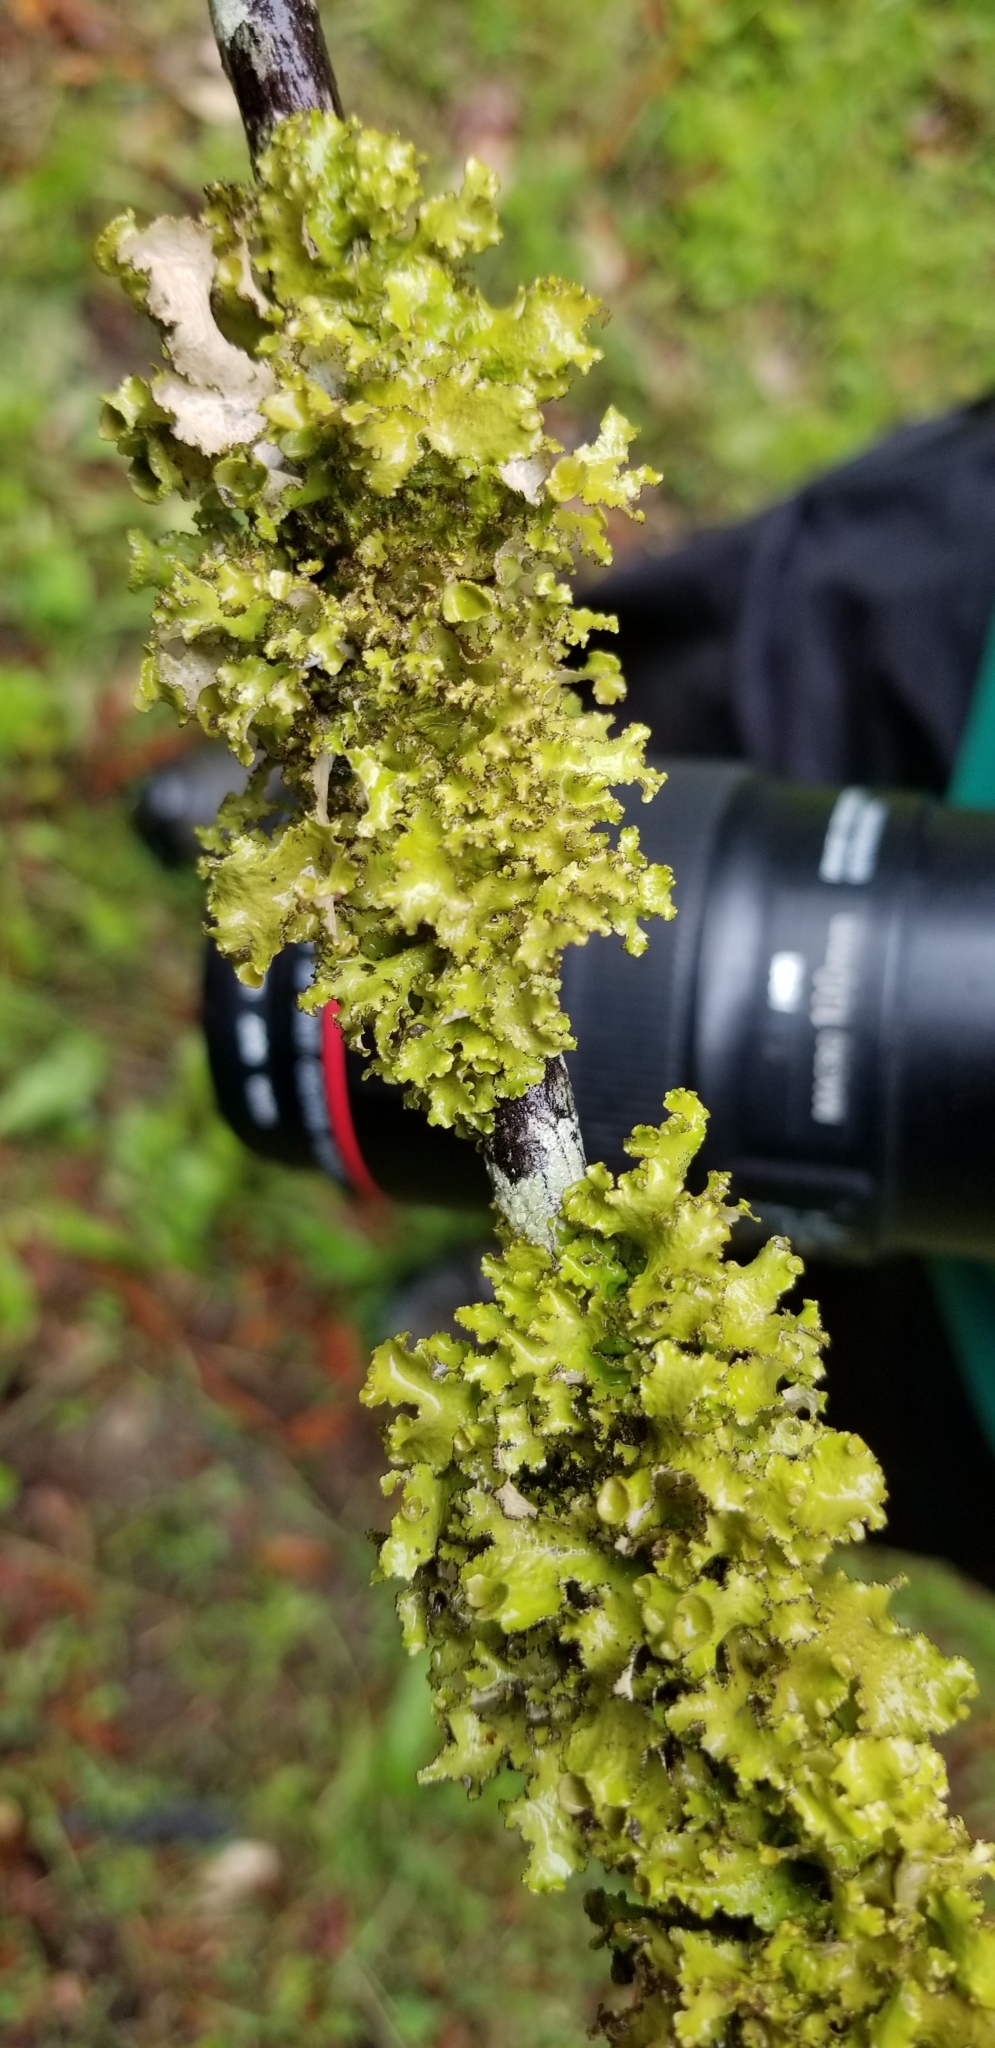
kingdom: Fungi
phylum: Ascomycota
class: Lecanoromycetes
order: Lecanorales
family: Parmeliaceae
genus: Nephromopsis
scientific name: Nephromopsis orbata
